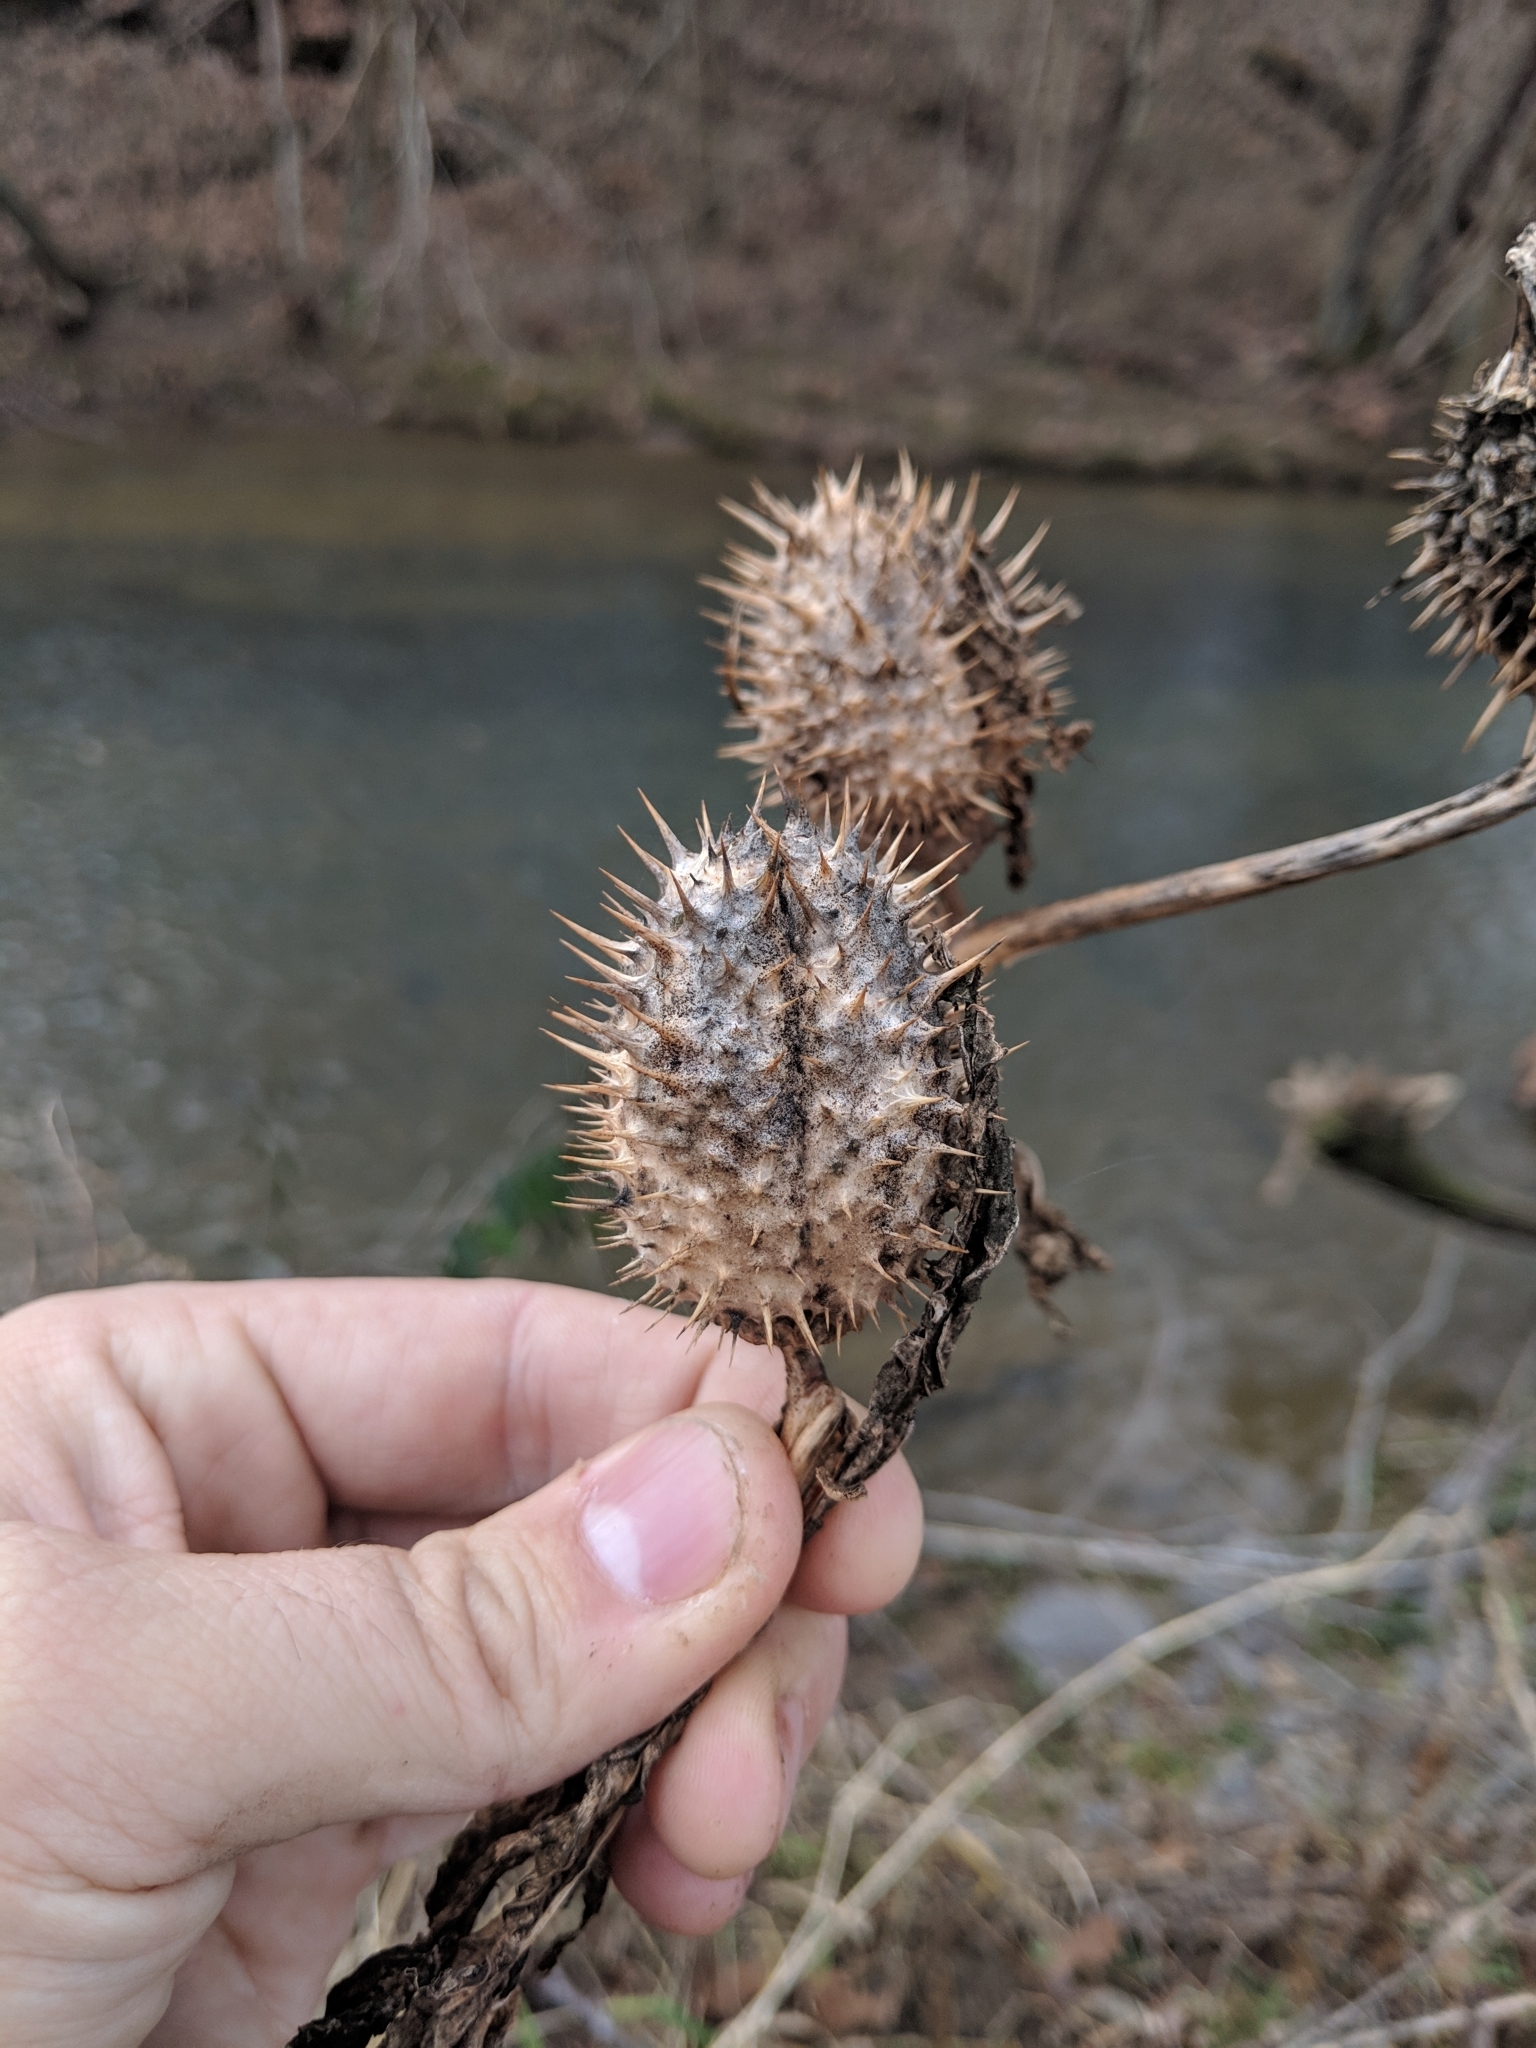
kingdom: Plantae
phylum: Tracheophyta
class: Magnoliopsida
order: Solanales
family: Solanaceae
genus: Datura
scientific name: Datura stramonium
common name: Thorn-apple
